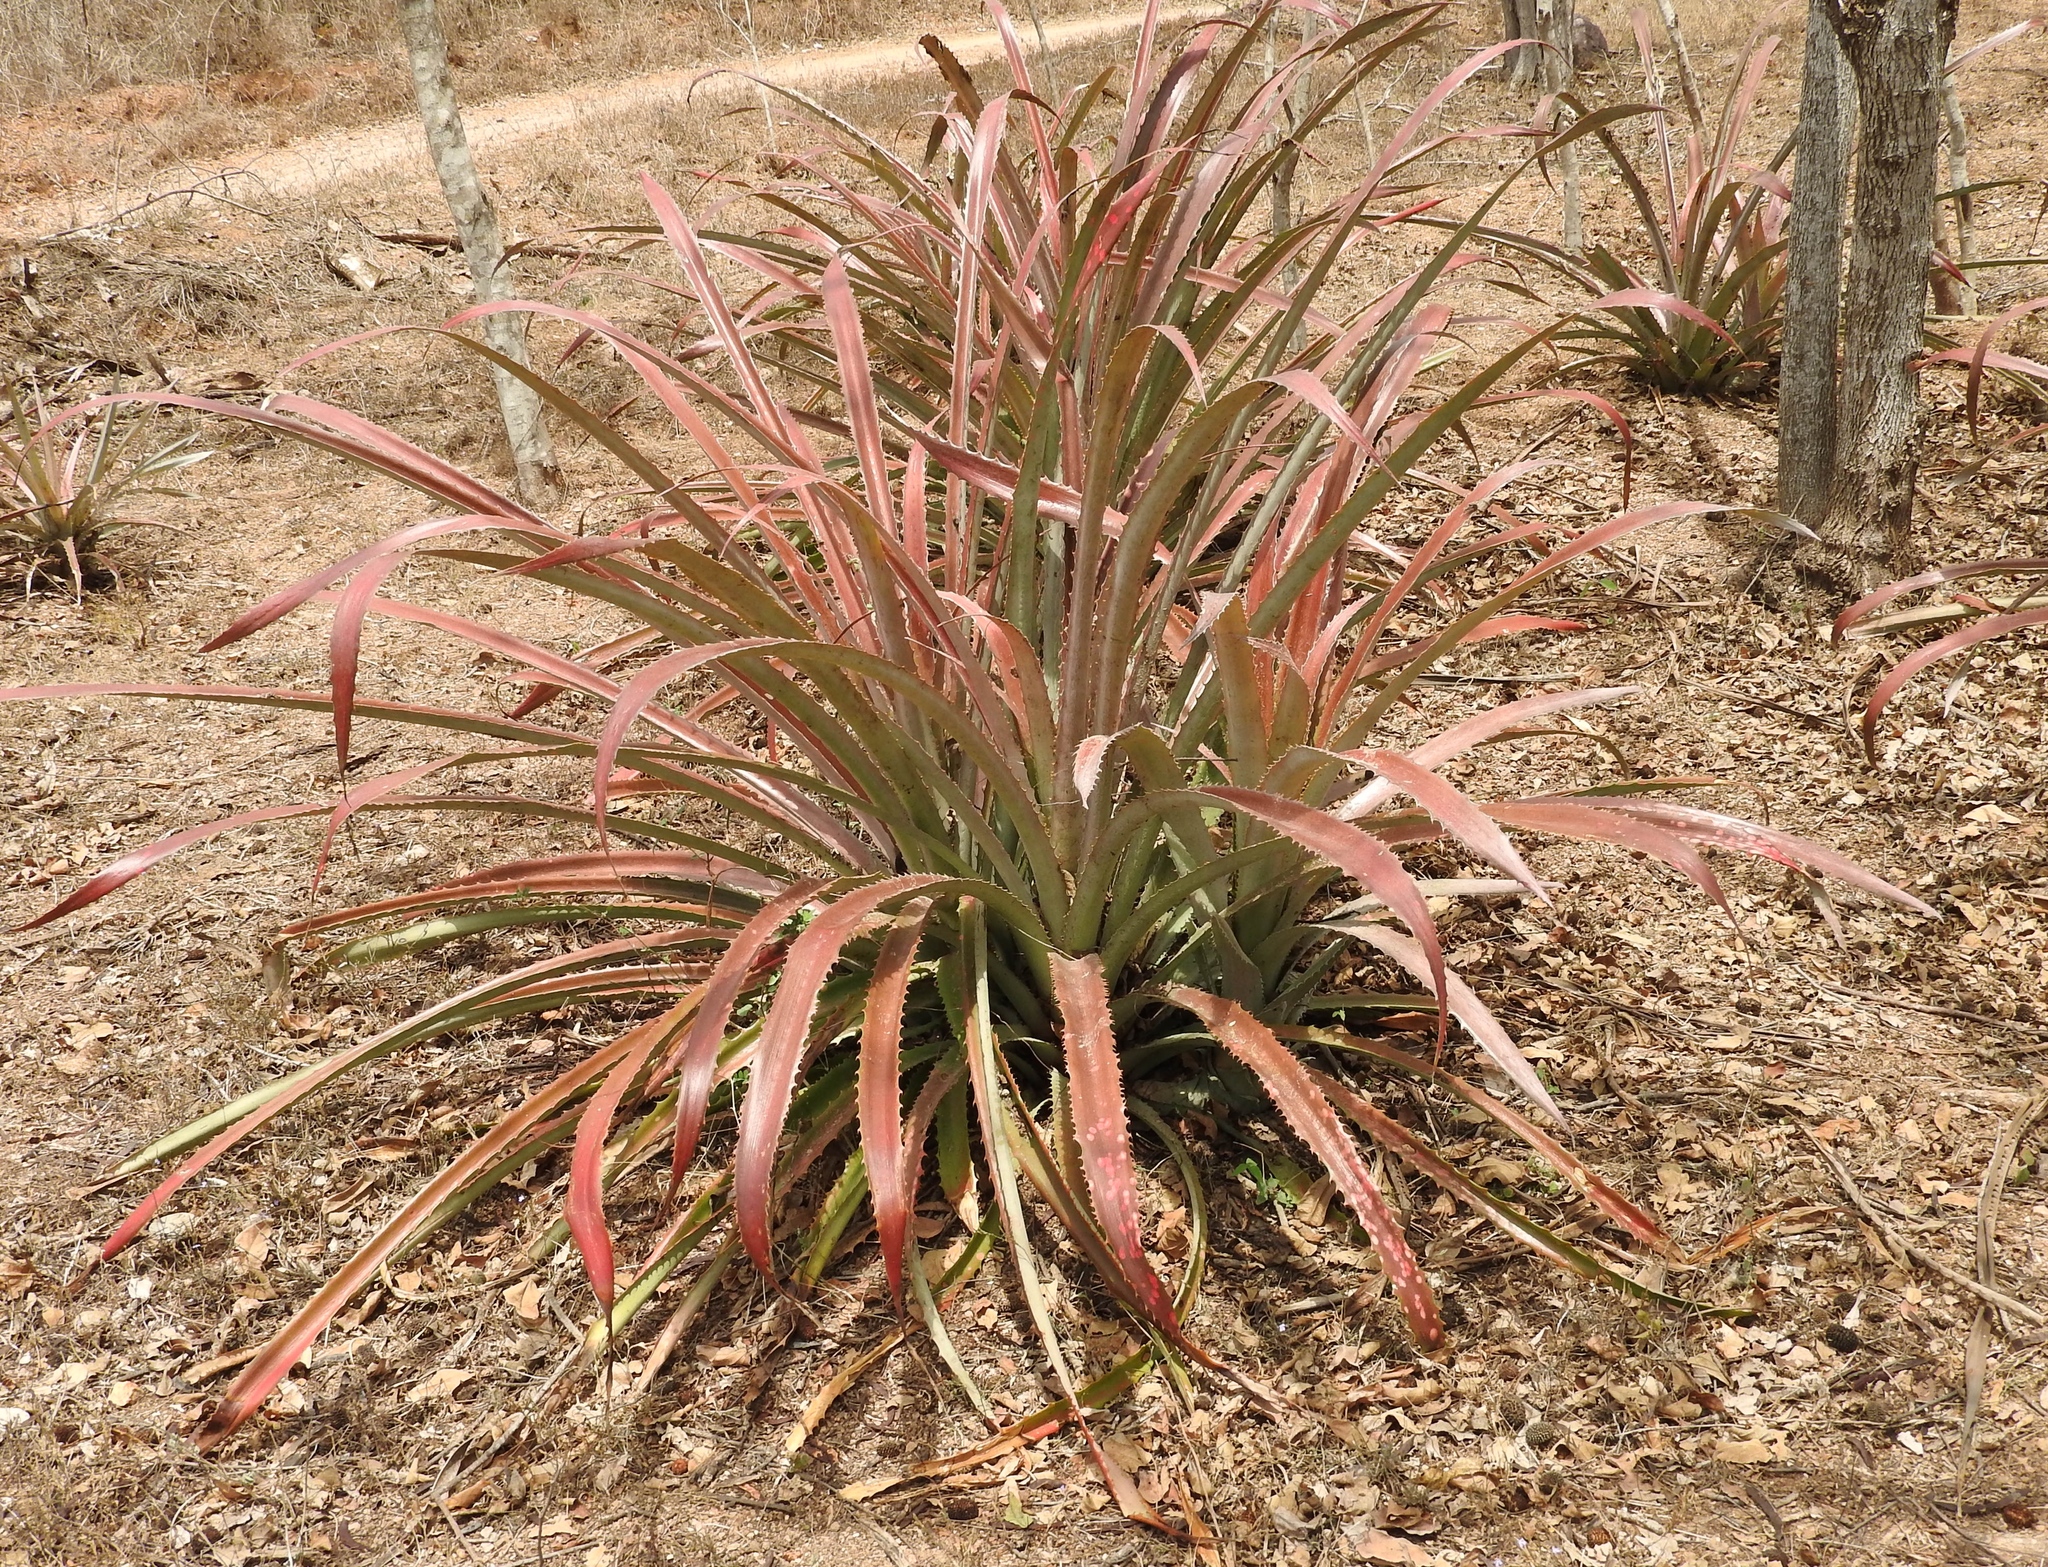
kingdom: Plantae
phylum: Tracheophyta
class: Liliopsida
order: Poales
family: Bromeliaceae
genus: Bromelia
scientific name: Bromelia hemisphaerica
